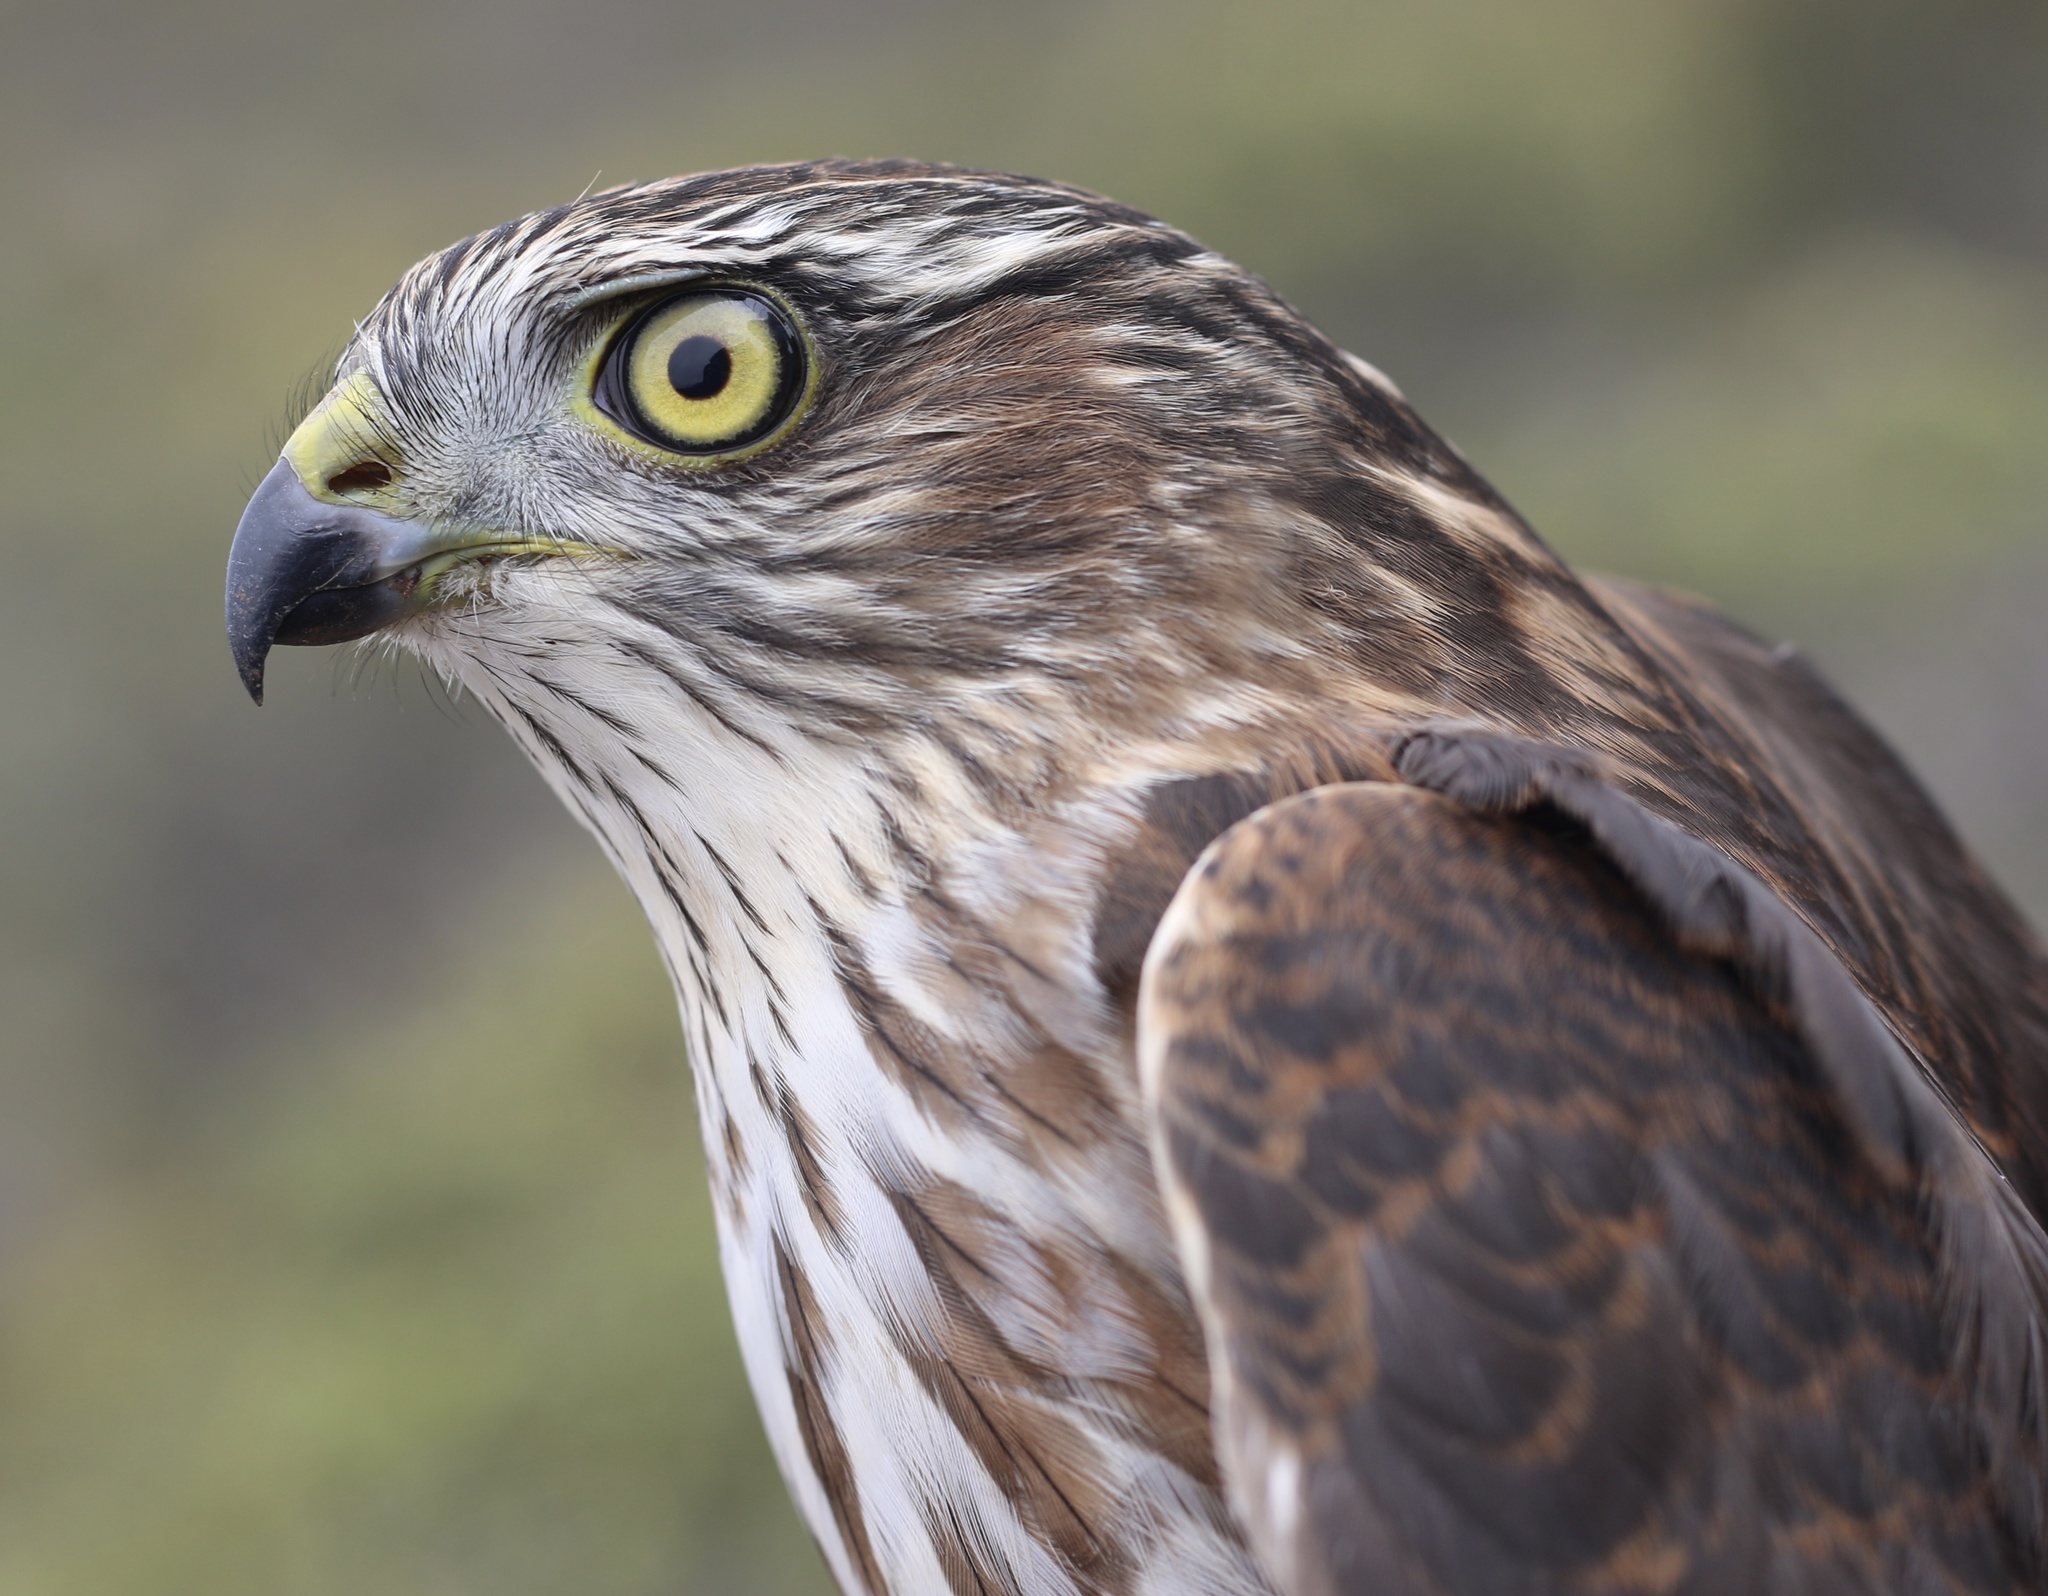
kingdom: Animalia
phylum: Chordata
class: Aves
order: Accipitriformes
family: Accipitridae
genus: Accipiter
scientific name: Accipiter striatus
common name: Sharp-shinned hawk
